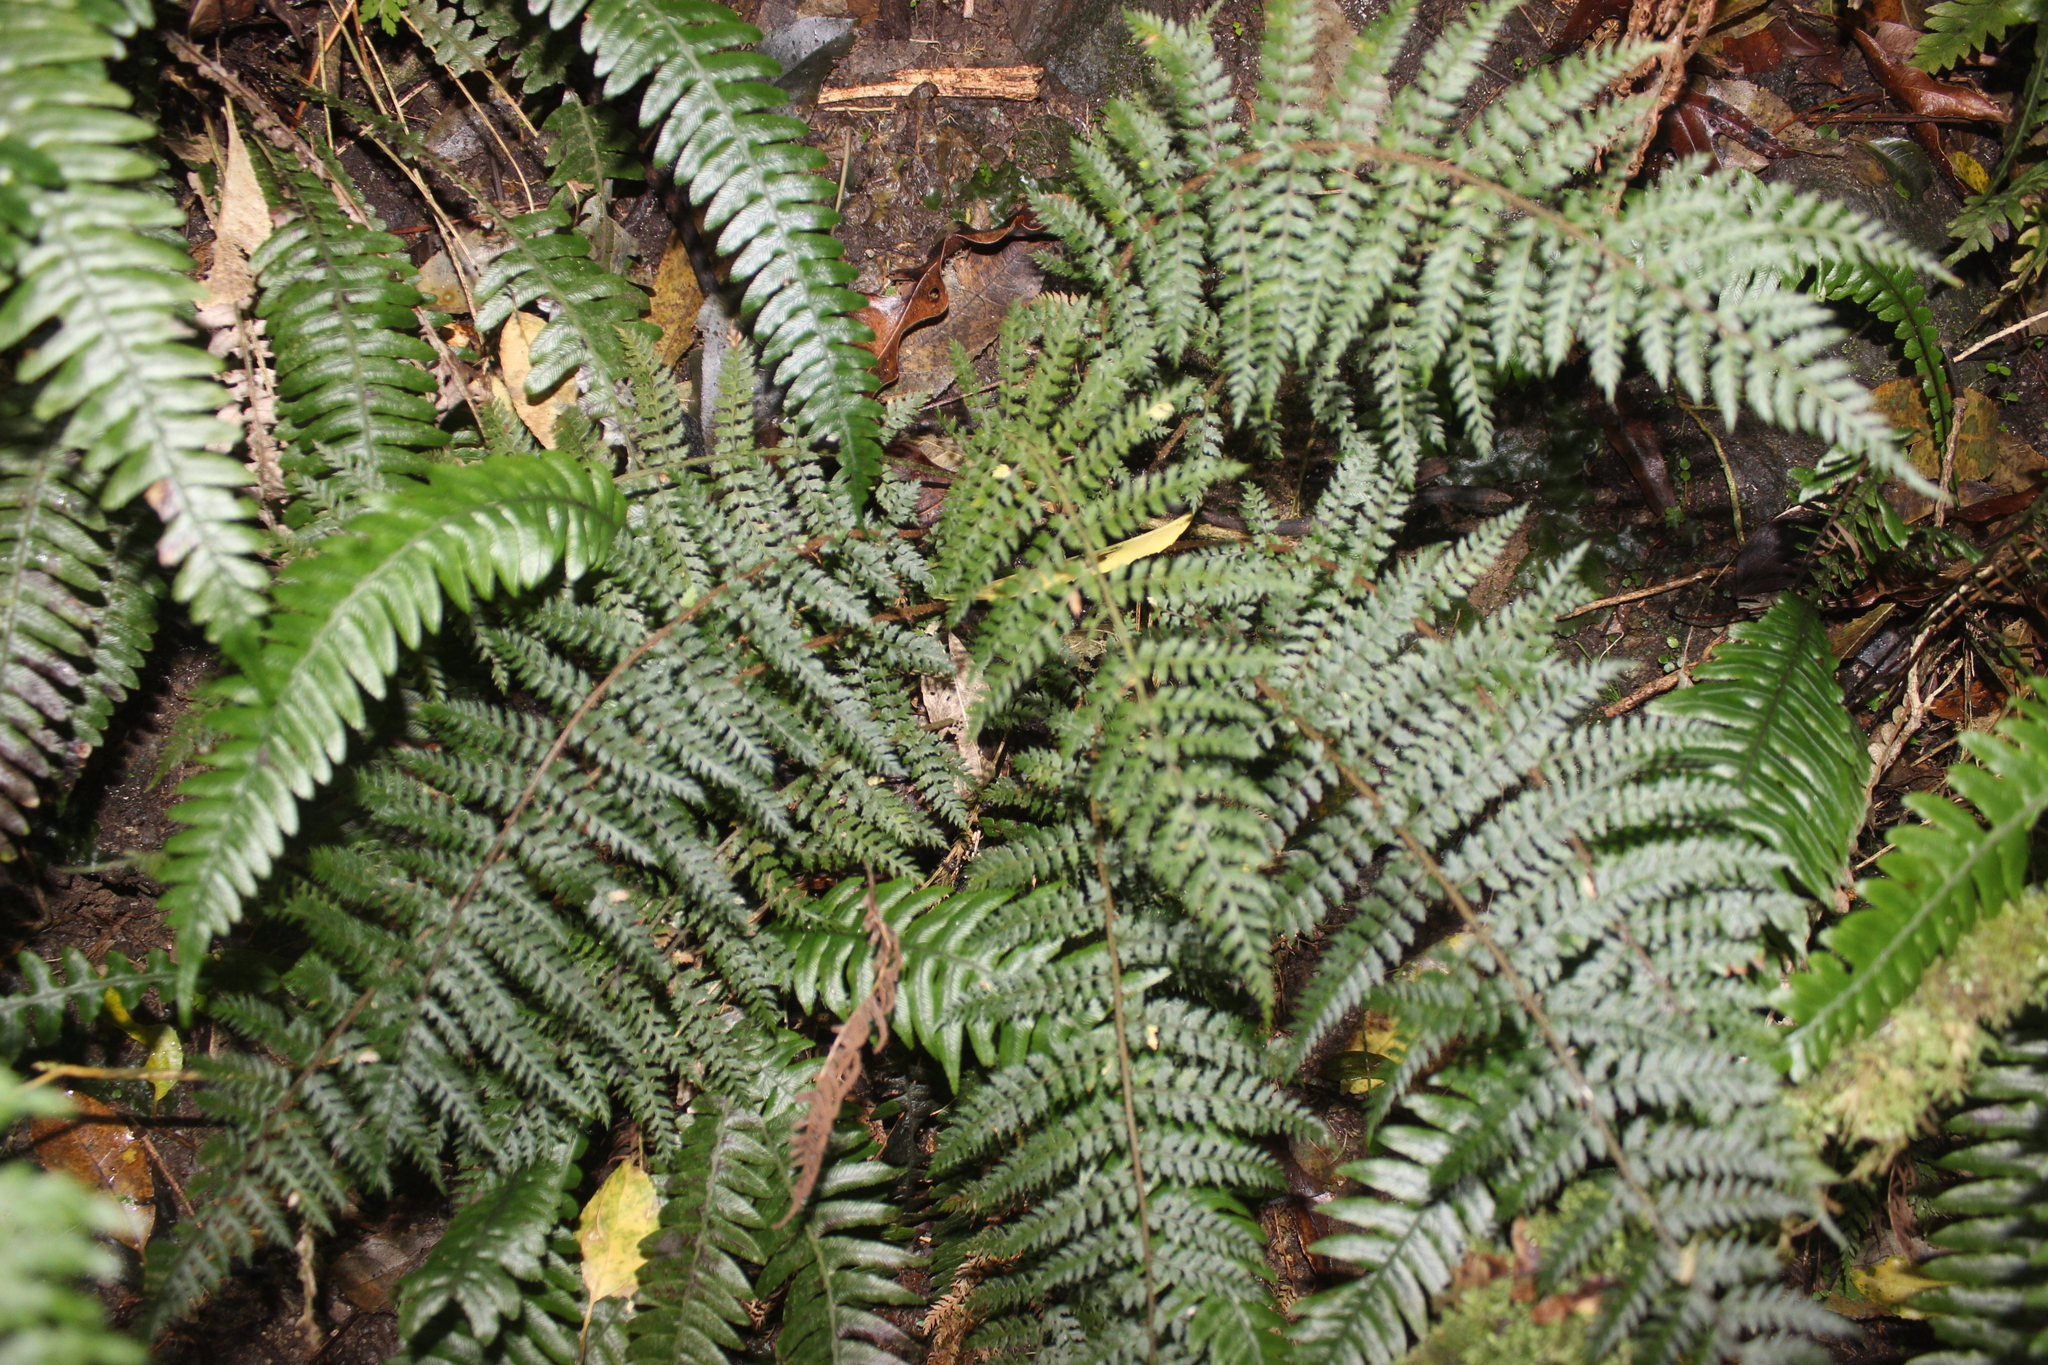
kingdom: Plantae
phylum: Tracheophyta
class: Polypodiopsida
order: Polypodiales
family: Dryopteridaceae
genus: Polystichum
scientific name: Polystichum silvaticum
